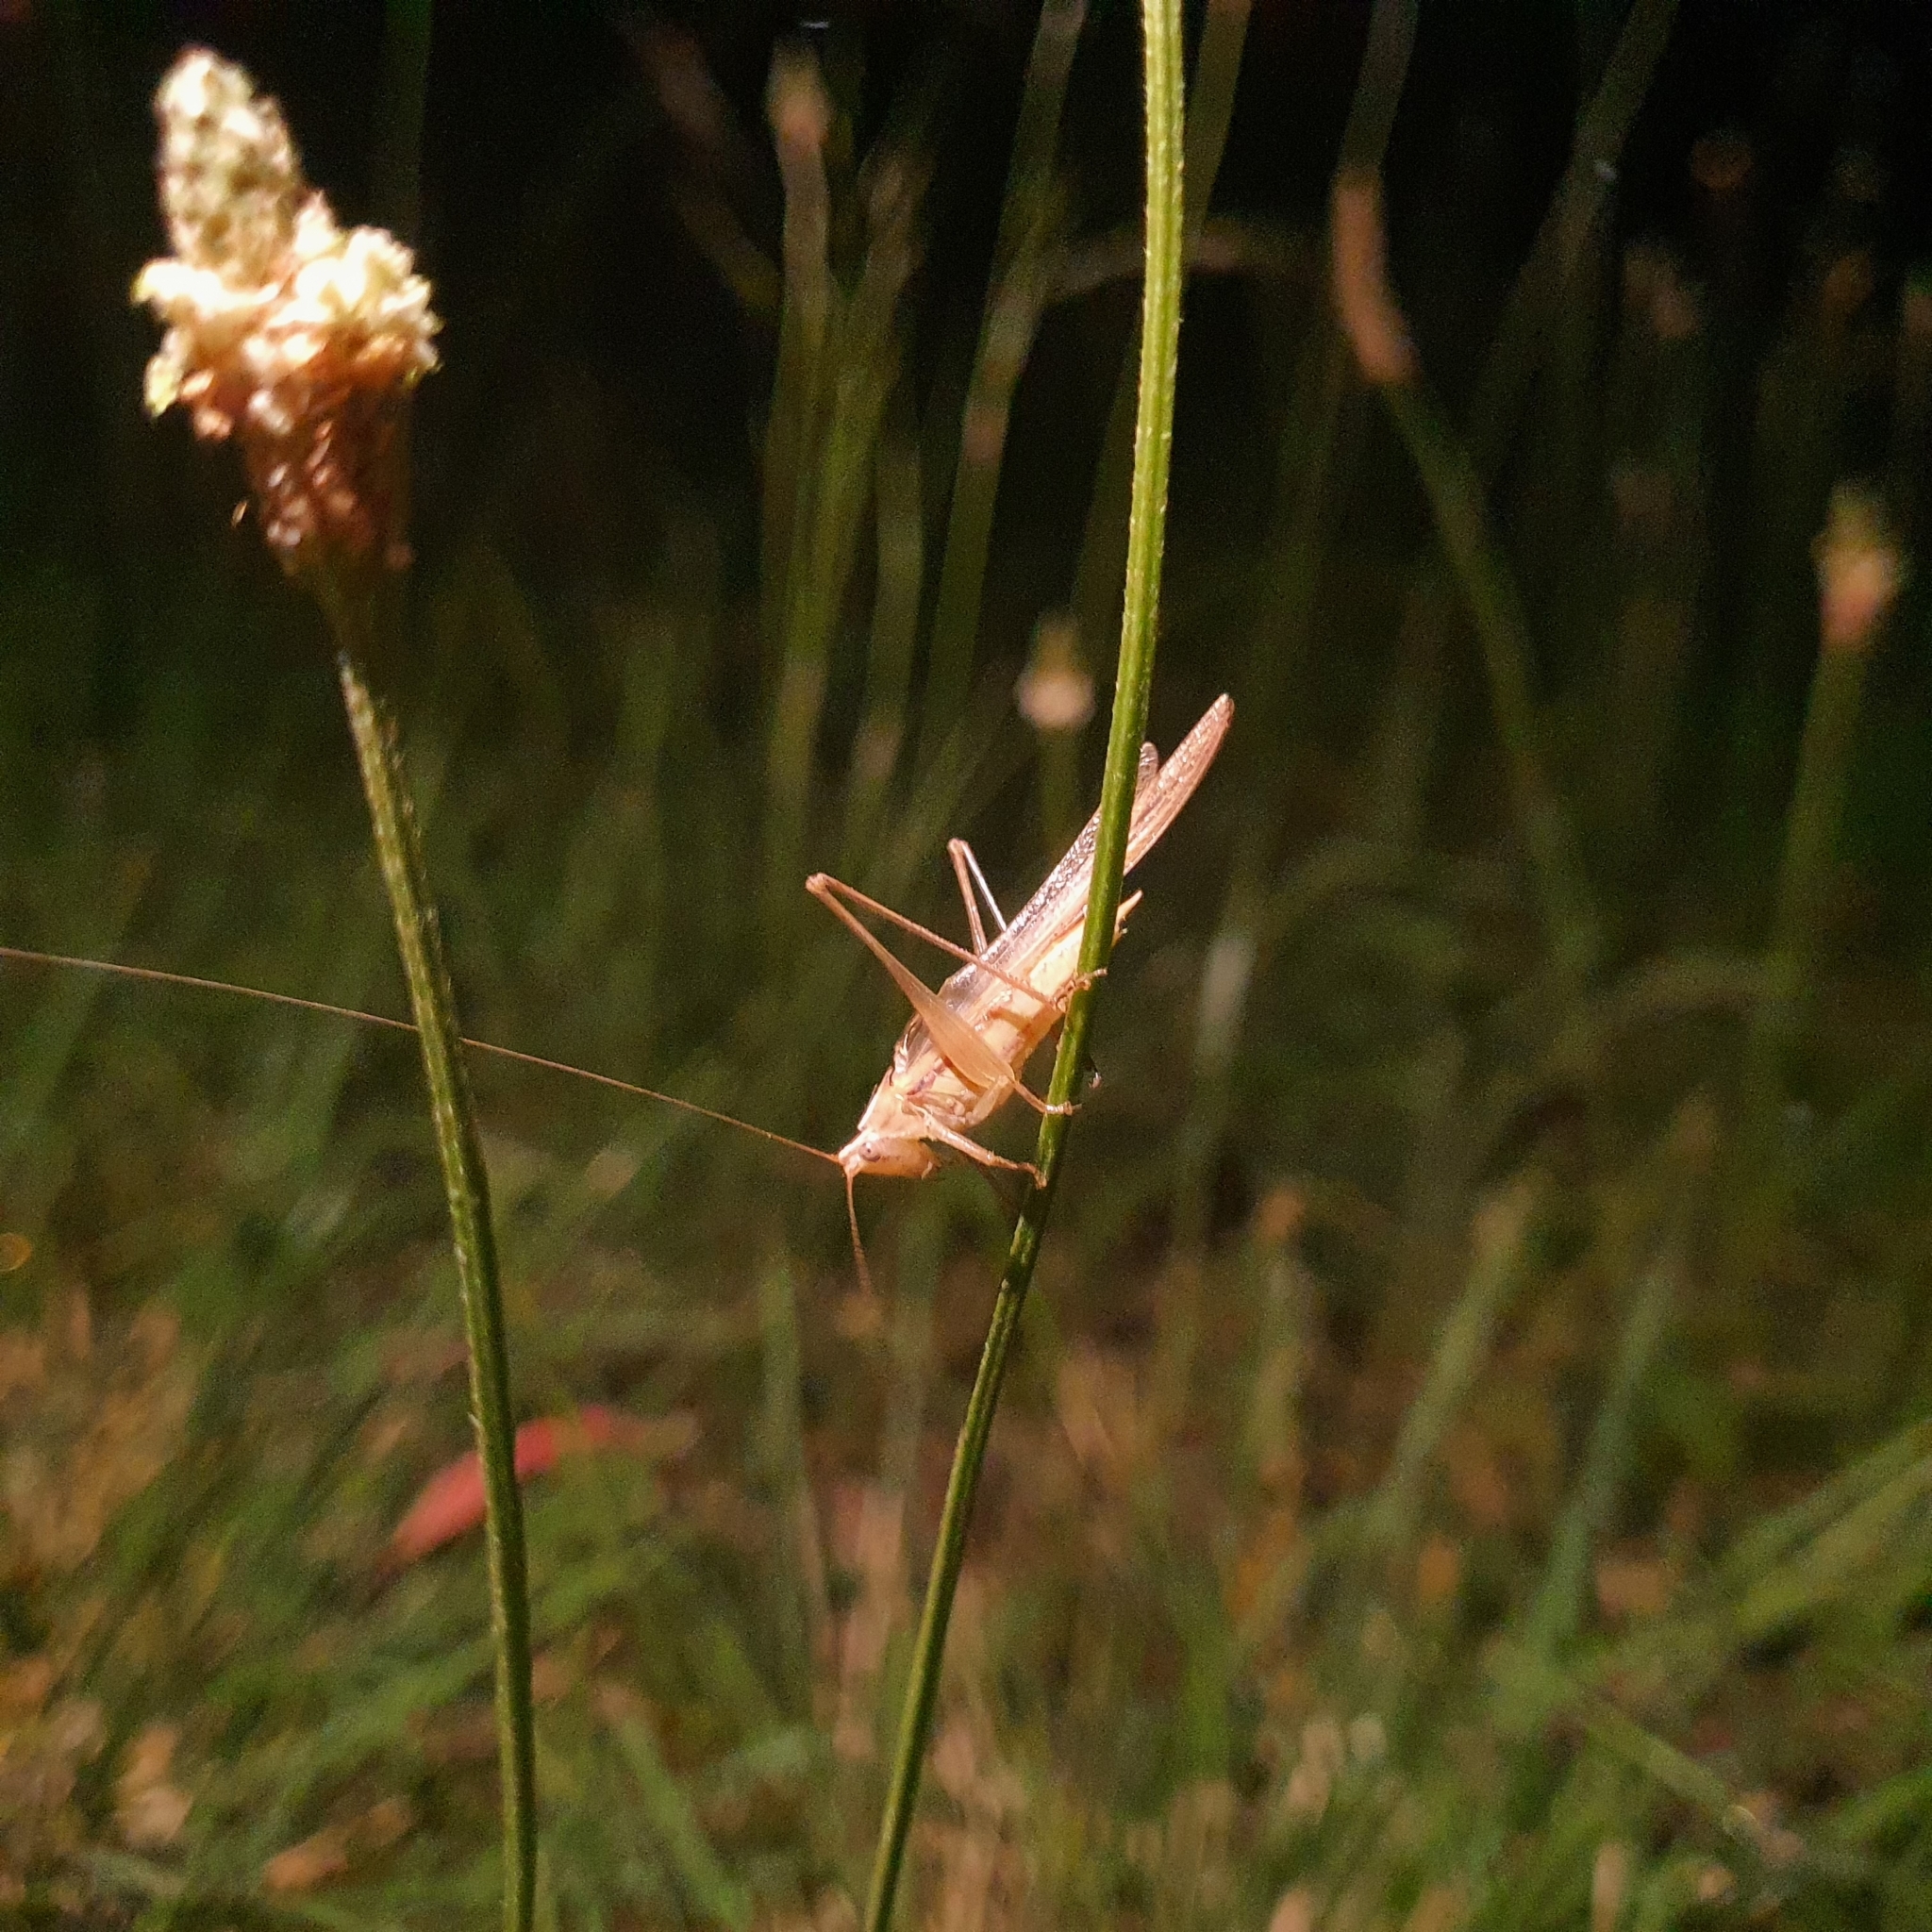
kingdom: Animalia
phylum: Arthropoda
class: Insecta
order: Orthoptera
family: Tettigoniidae
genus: Conocephalus
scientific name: Conocephalus upoluensis
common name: Upolu meadow katydid
